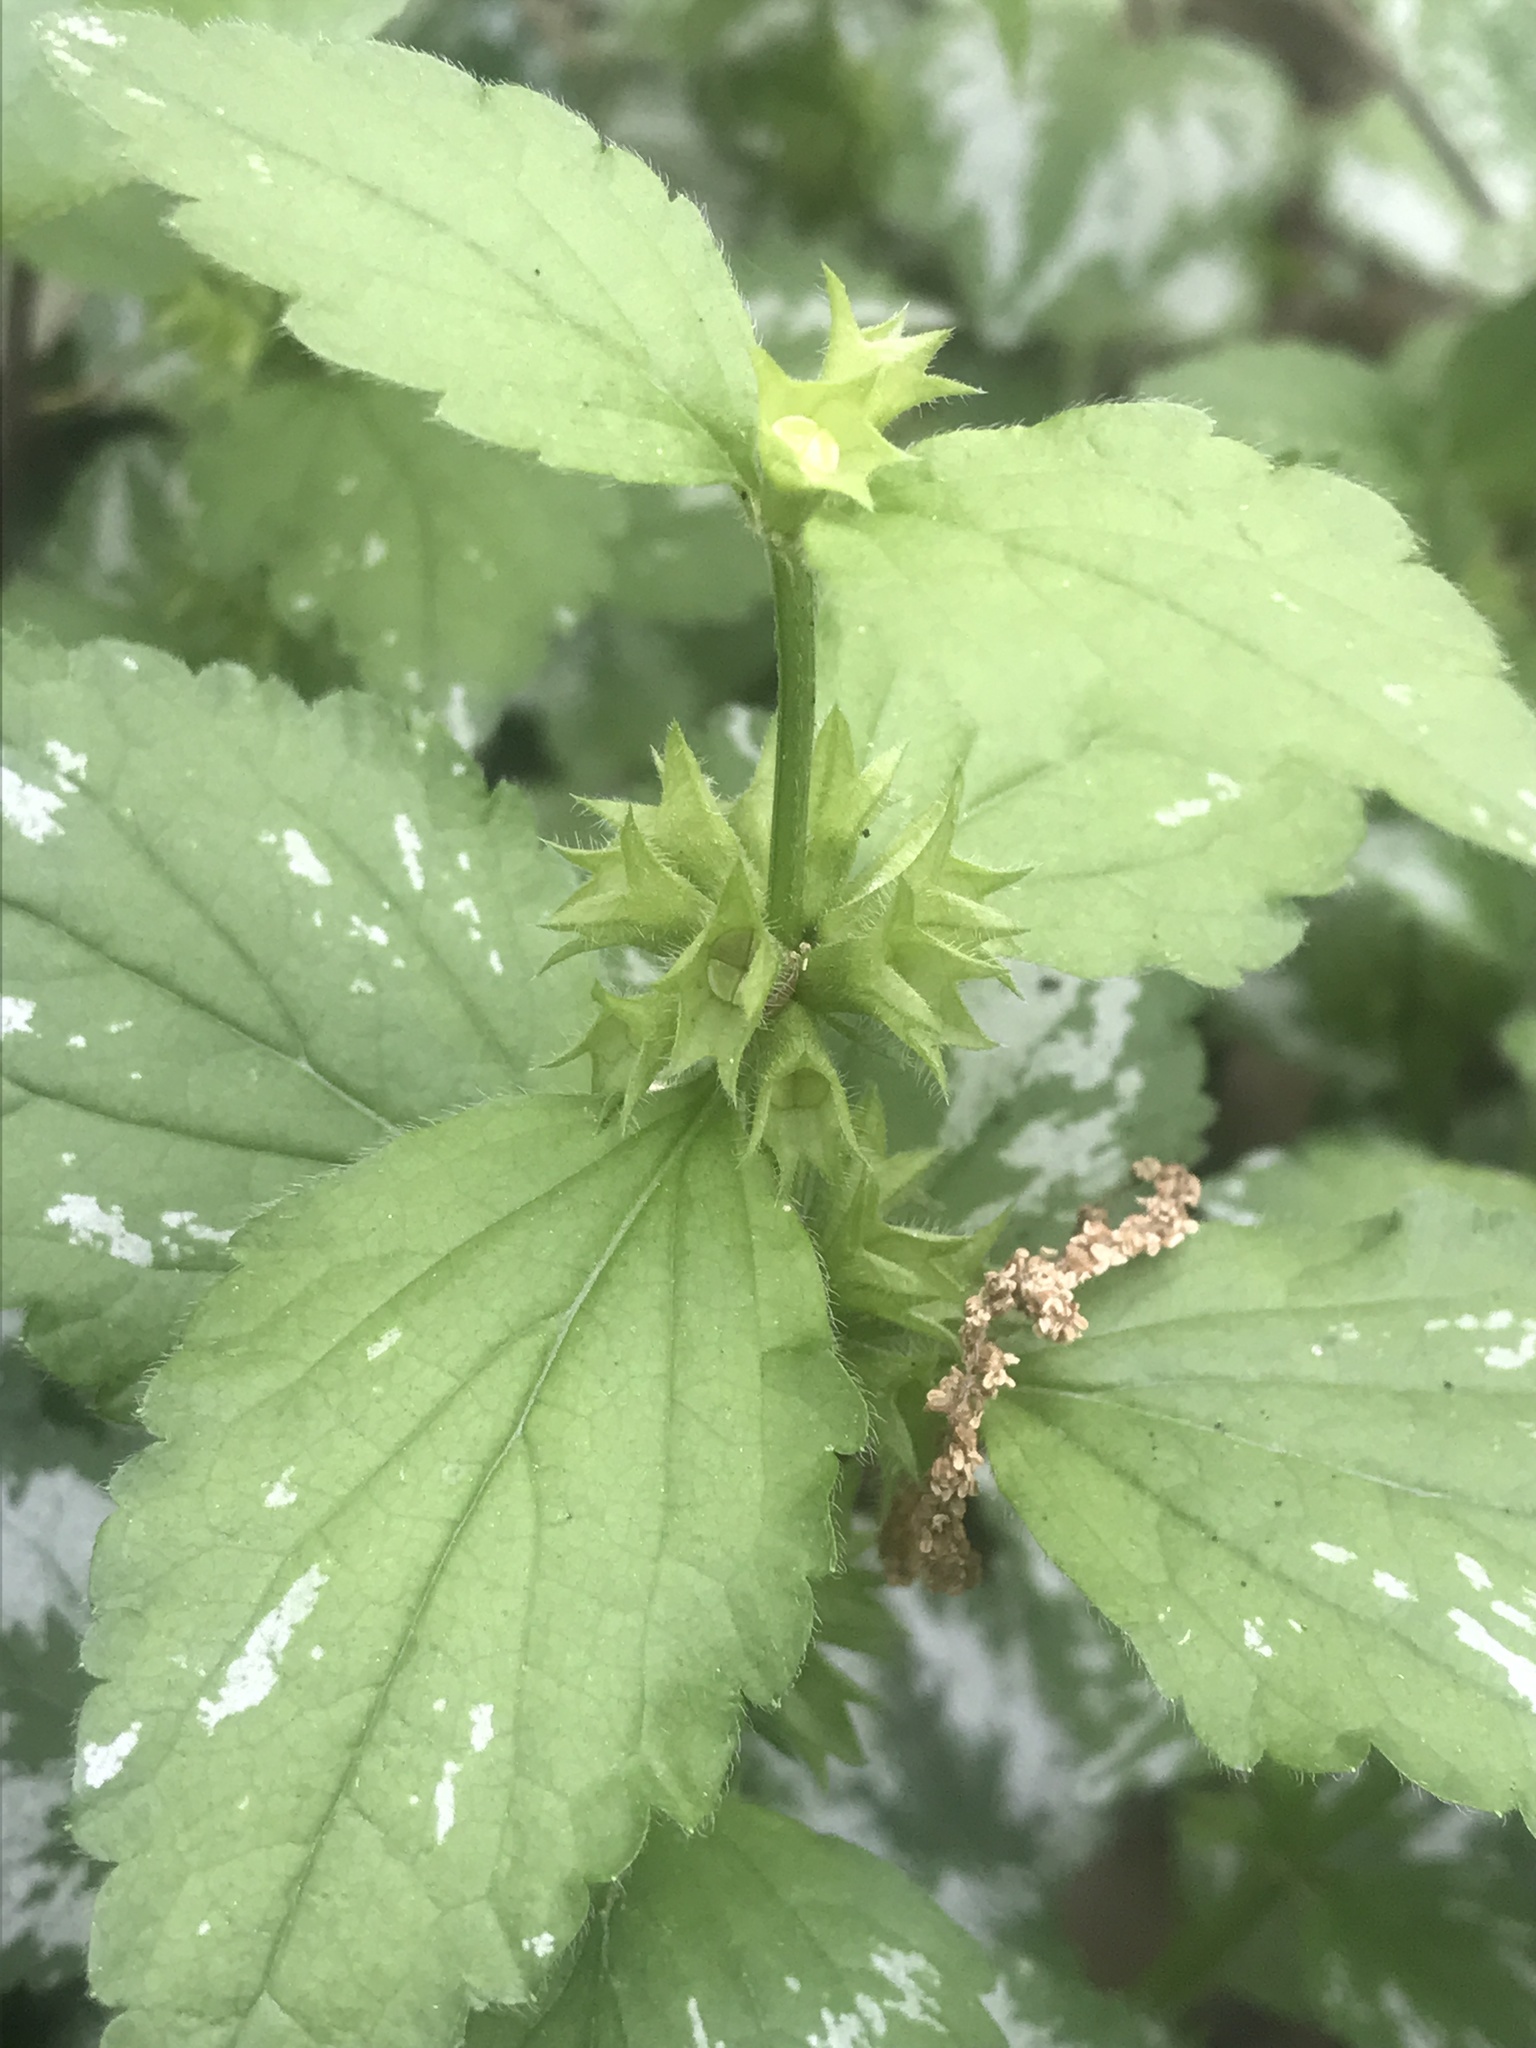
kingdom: Plantae
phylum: Tracheophyta
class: Magnoliopsida
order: Lamiales
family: Lamiaceae
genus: Lamium
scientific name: Lamium galeobdolon
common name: Yellow archangel
